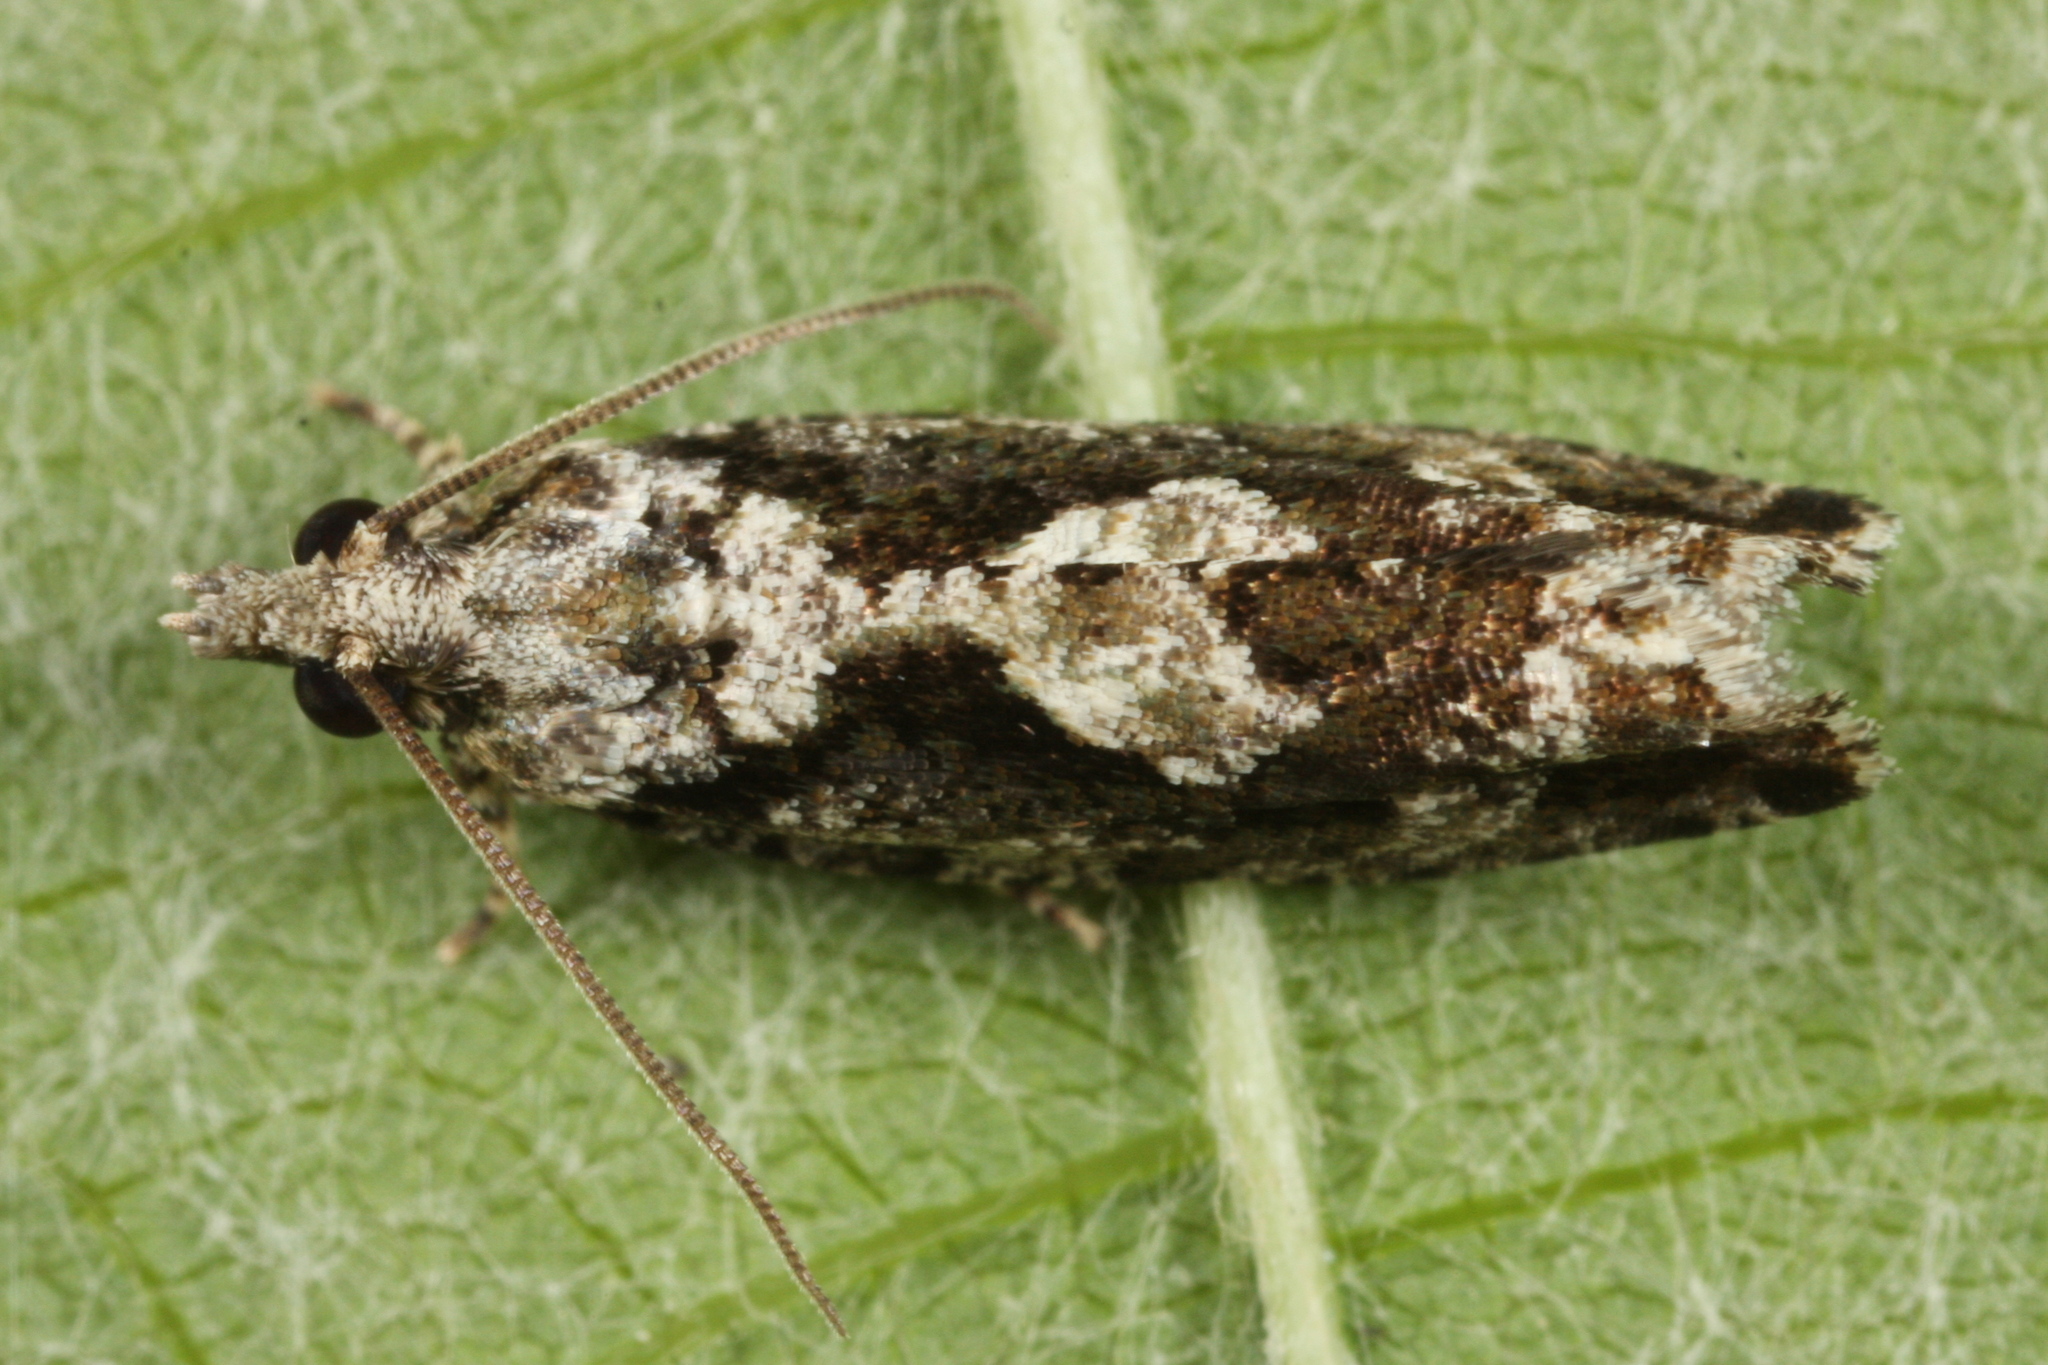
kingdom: Animalia
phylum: Arthropoda
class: Insecta
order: Lepidoptera
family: Tortricidae
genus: Zeiraphera
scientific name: Zeiraphera isertana
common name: Cock's-head bell
